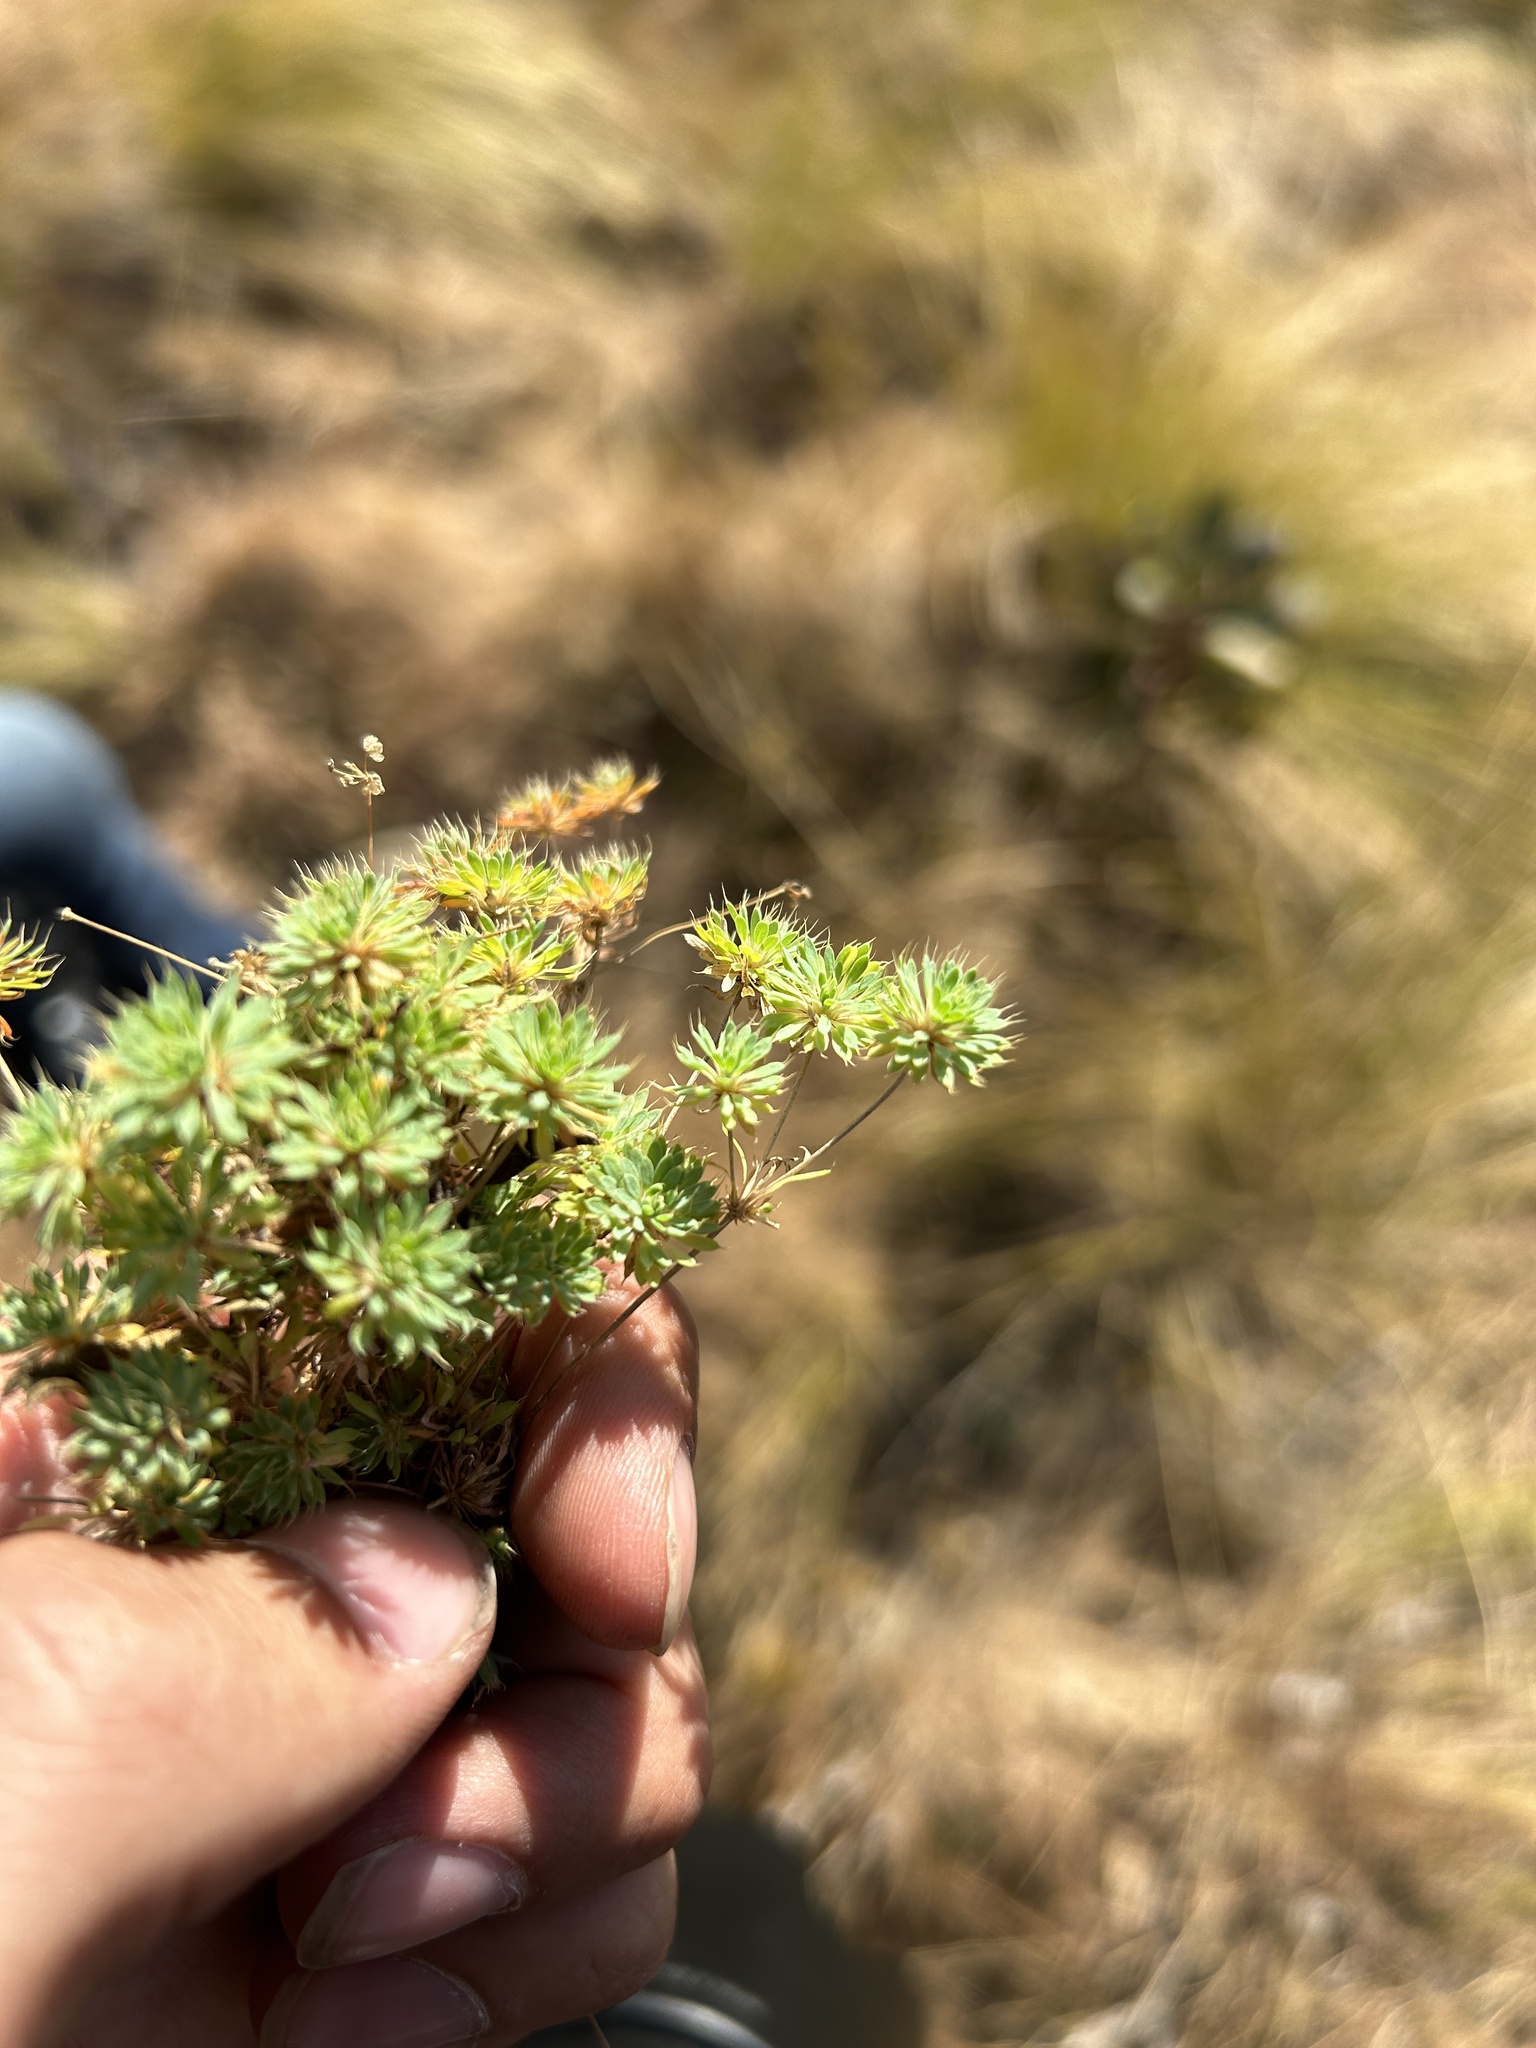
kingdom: Plantae
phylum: Tracheophyta
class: Magnoliopsida
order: Caryophyllales
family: Molluginaceae
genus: Psammotropha
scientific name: Psammotropha mucronata
